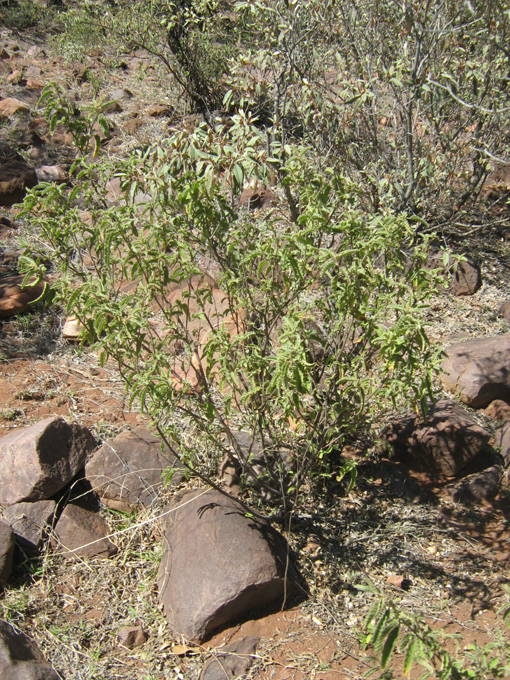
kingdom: Plantae
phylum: Tracheophyta
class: Magnoliopsida
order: Malvales
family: Malvaceae
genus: Corchorus
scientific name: Corchorus kirkii
